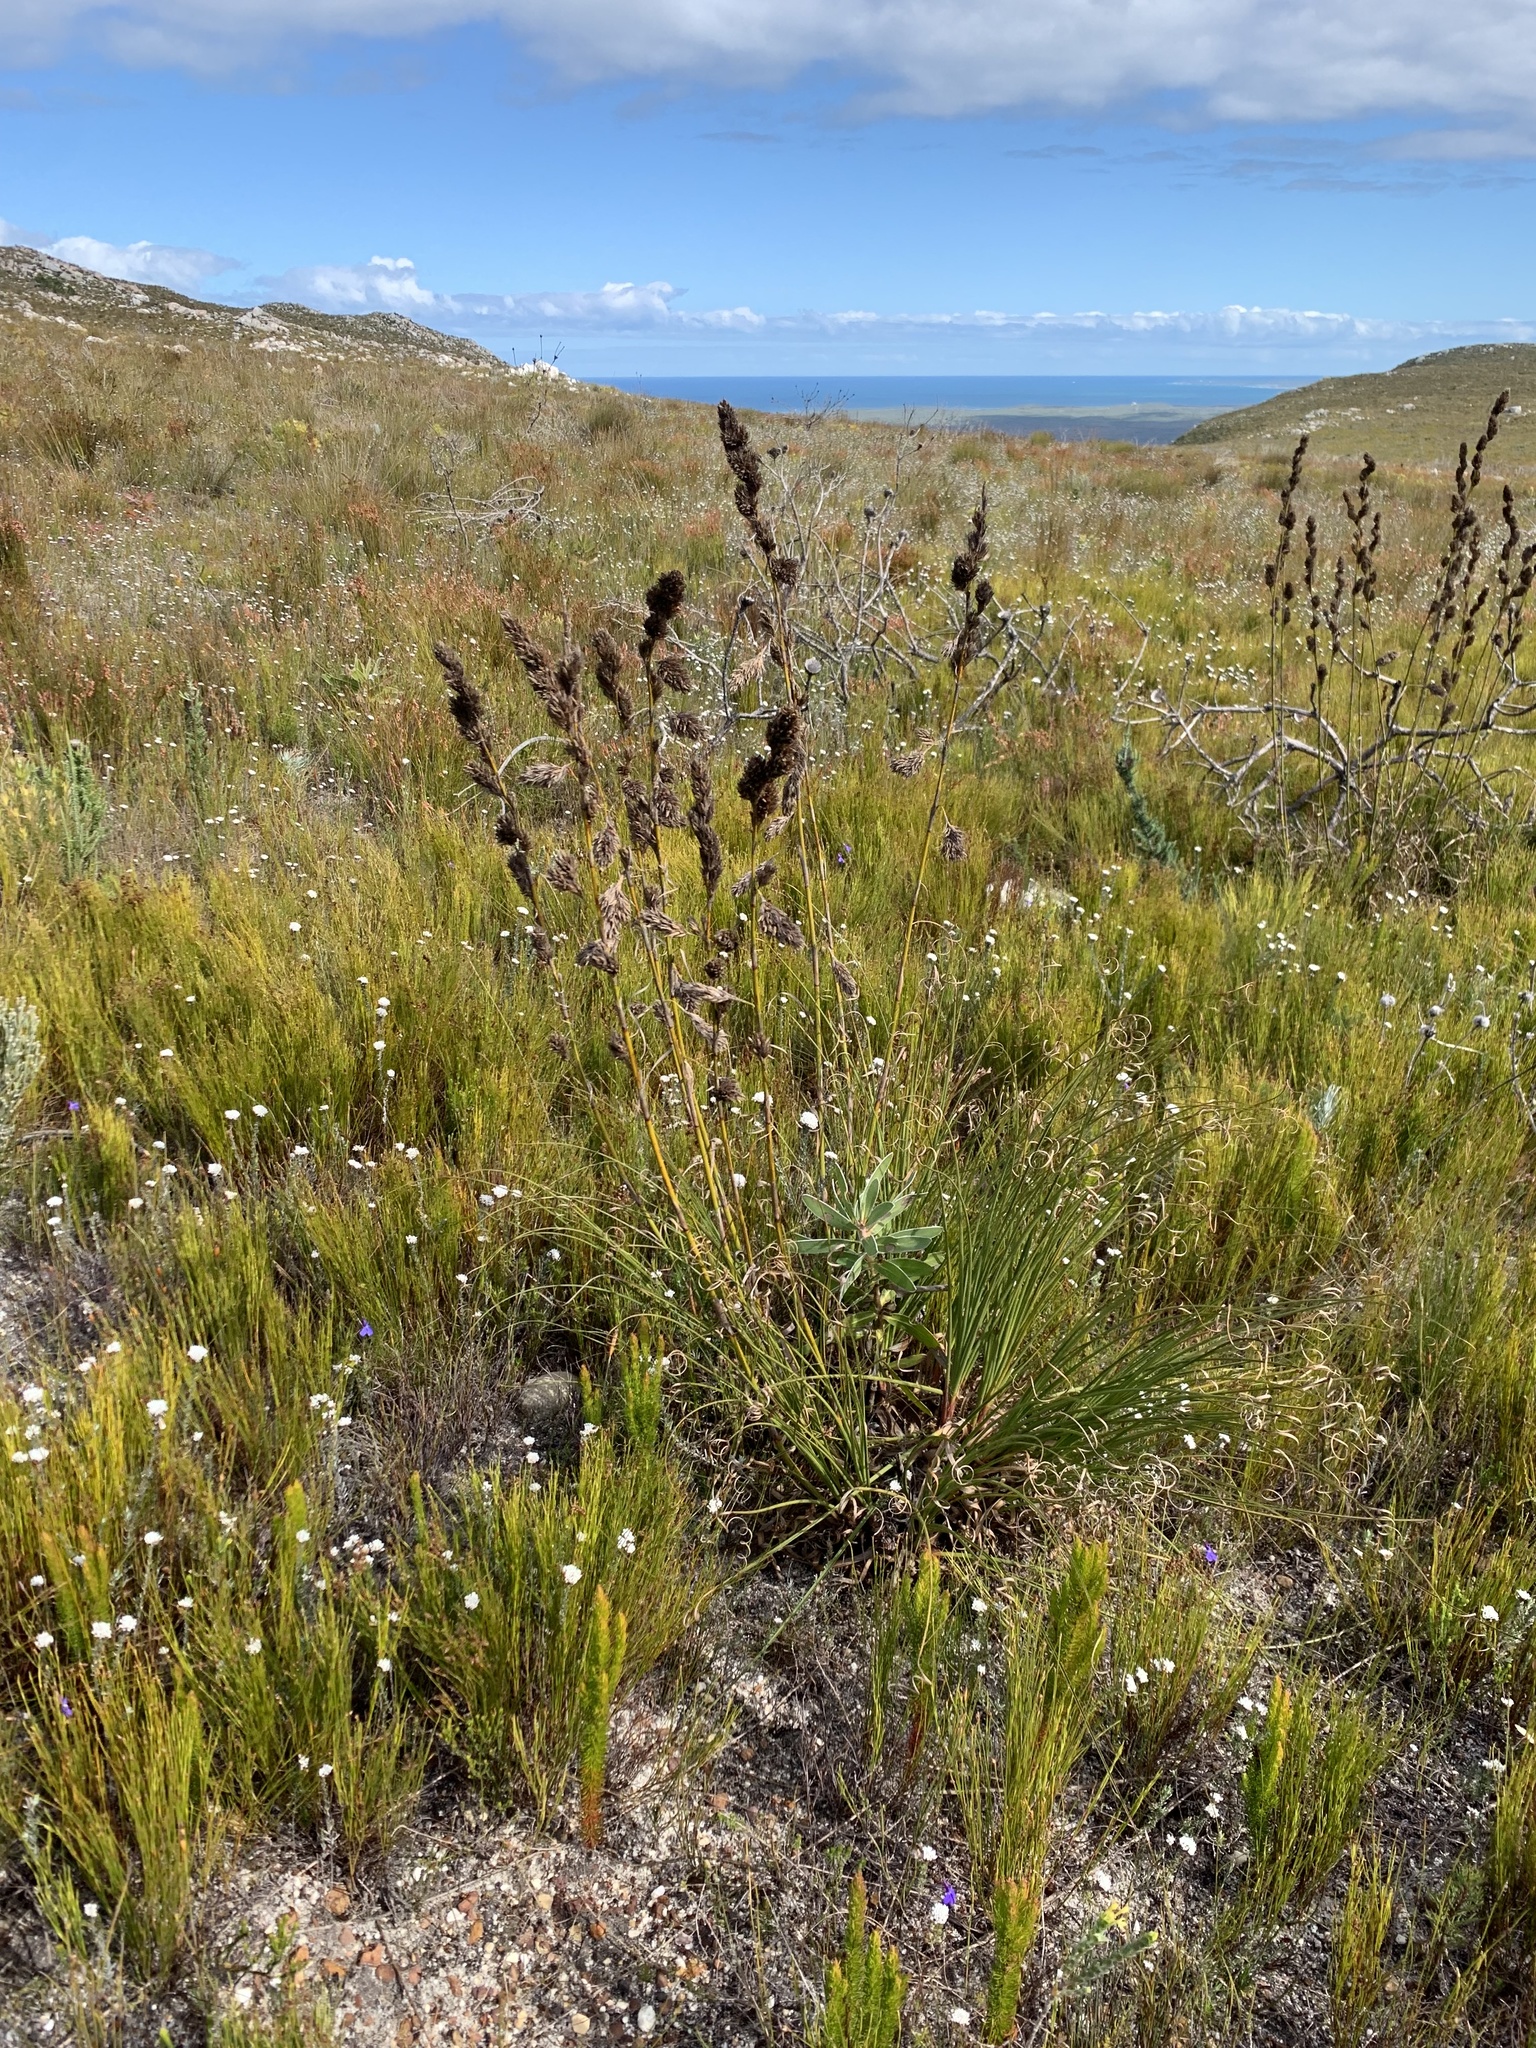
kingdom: Plantae
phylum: Tracheophyta
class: Liliopsida
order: Poales
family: Cyperaceae
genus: Tetraria
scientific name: Tetraria bromoides
